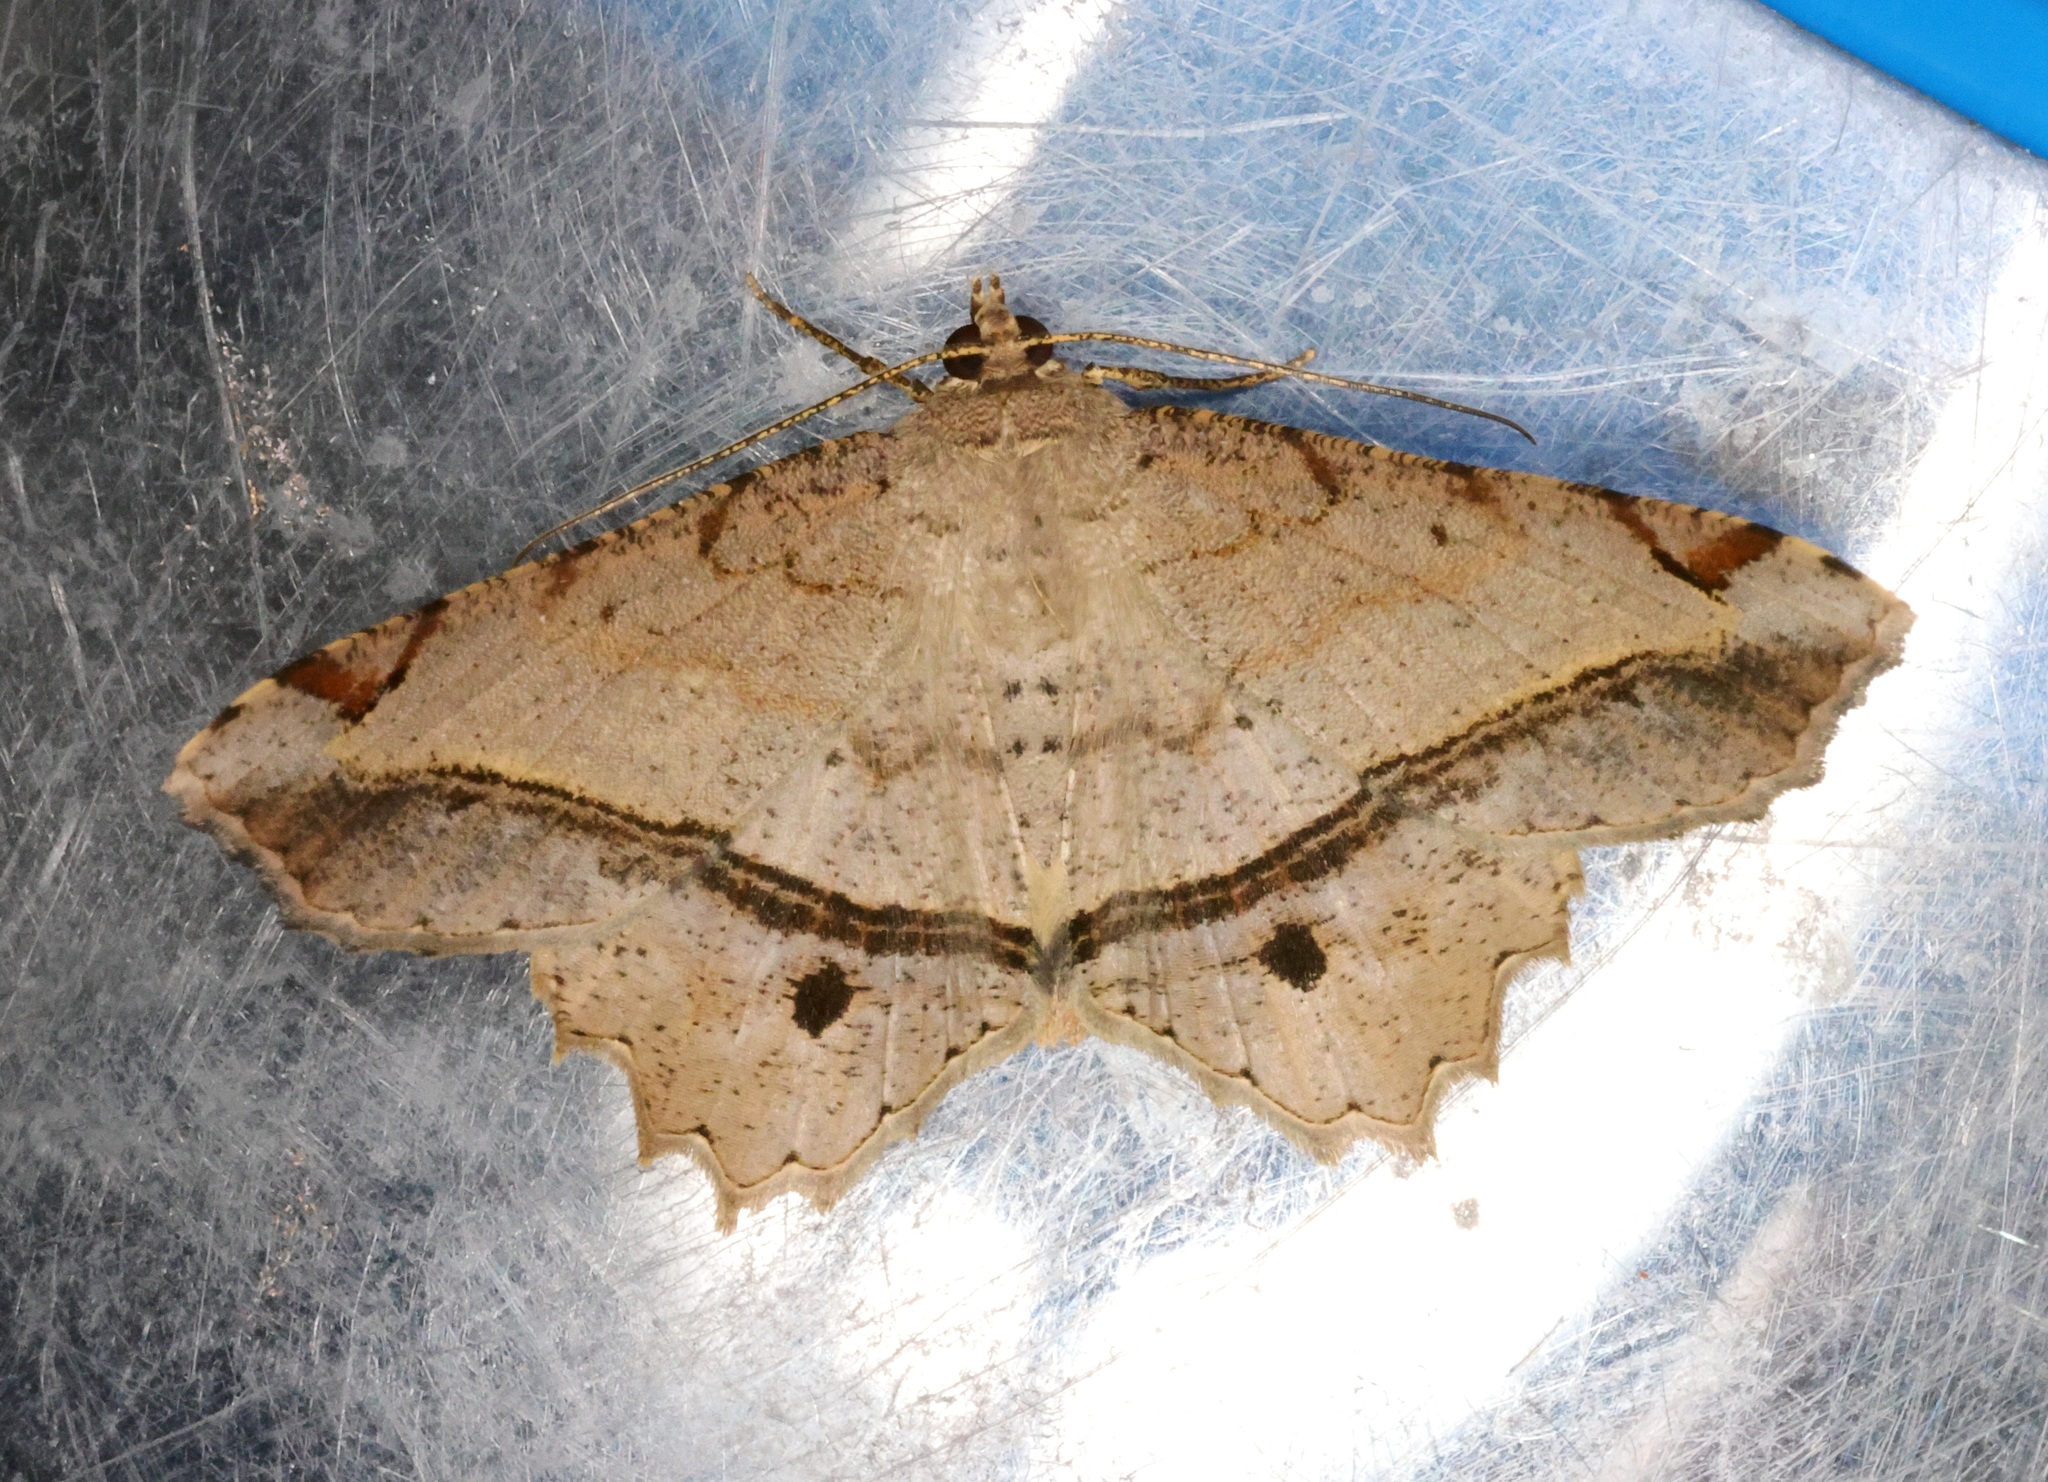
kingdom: Animalia
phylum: Arthropoda
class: Insecta
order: Lepidoptera
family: Geometridae
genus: Chiasmia
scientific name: Chiasmia monticolaria
